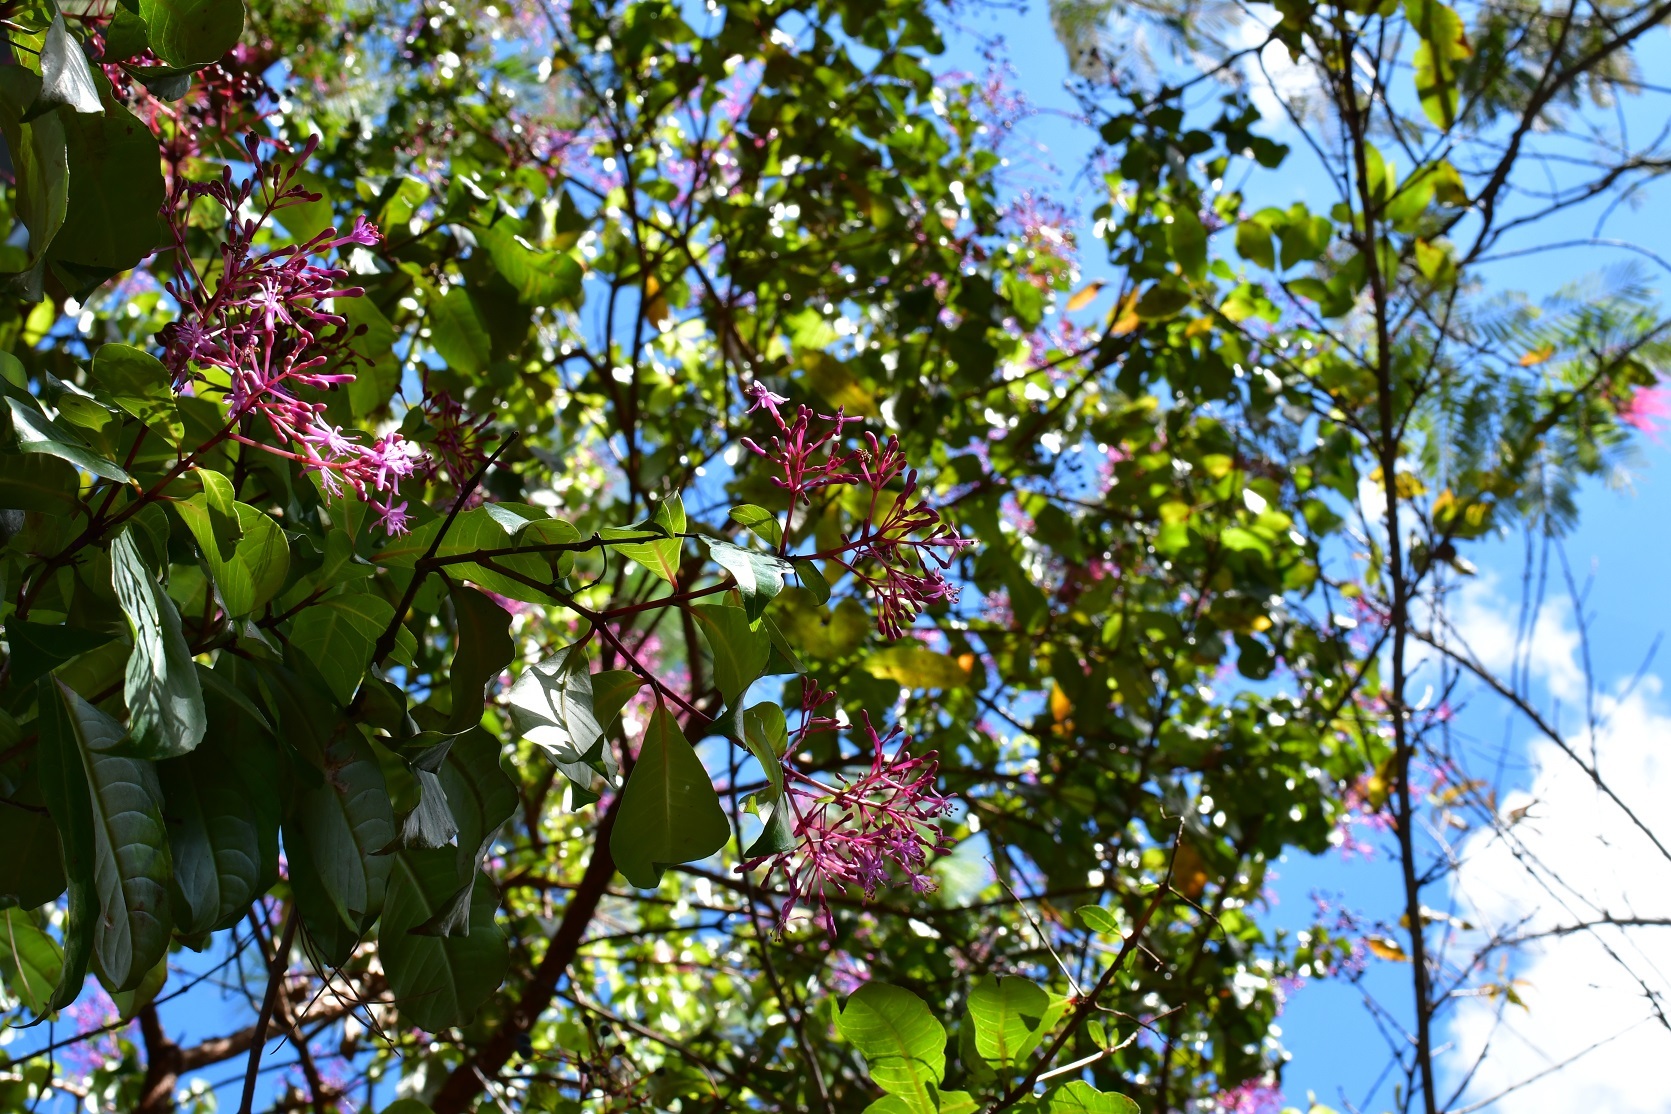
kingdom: Plantae
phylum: Tracheophyta
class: Magnoliopsida
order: Myrtales
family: Onagraceae
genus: Fuchsia
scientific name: Fuchsia paniculata
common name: Shrubby fuchsia
